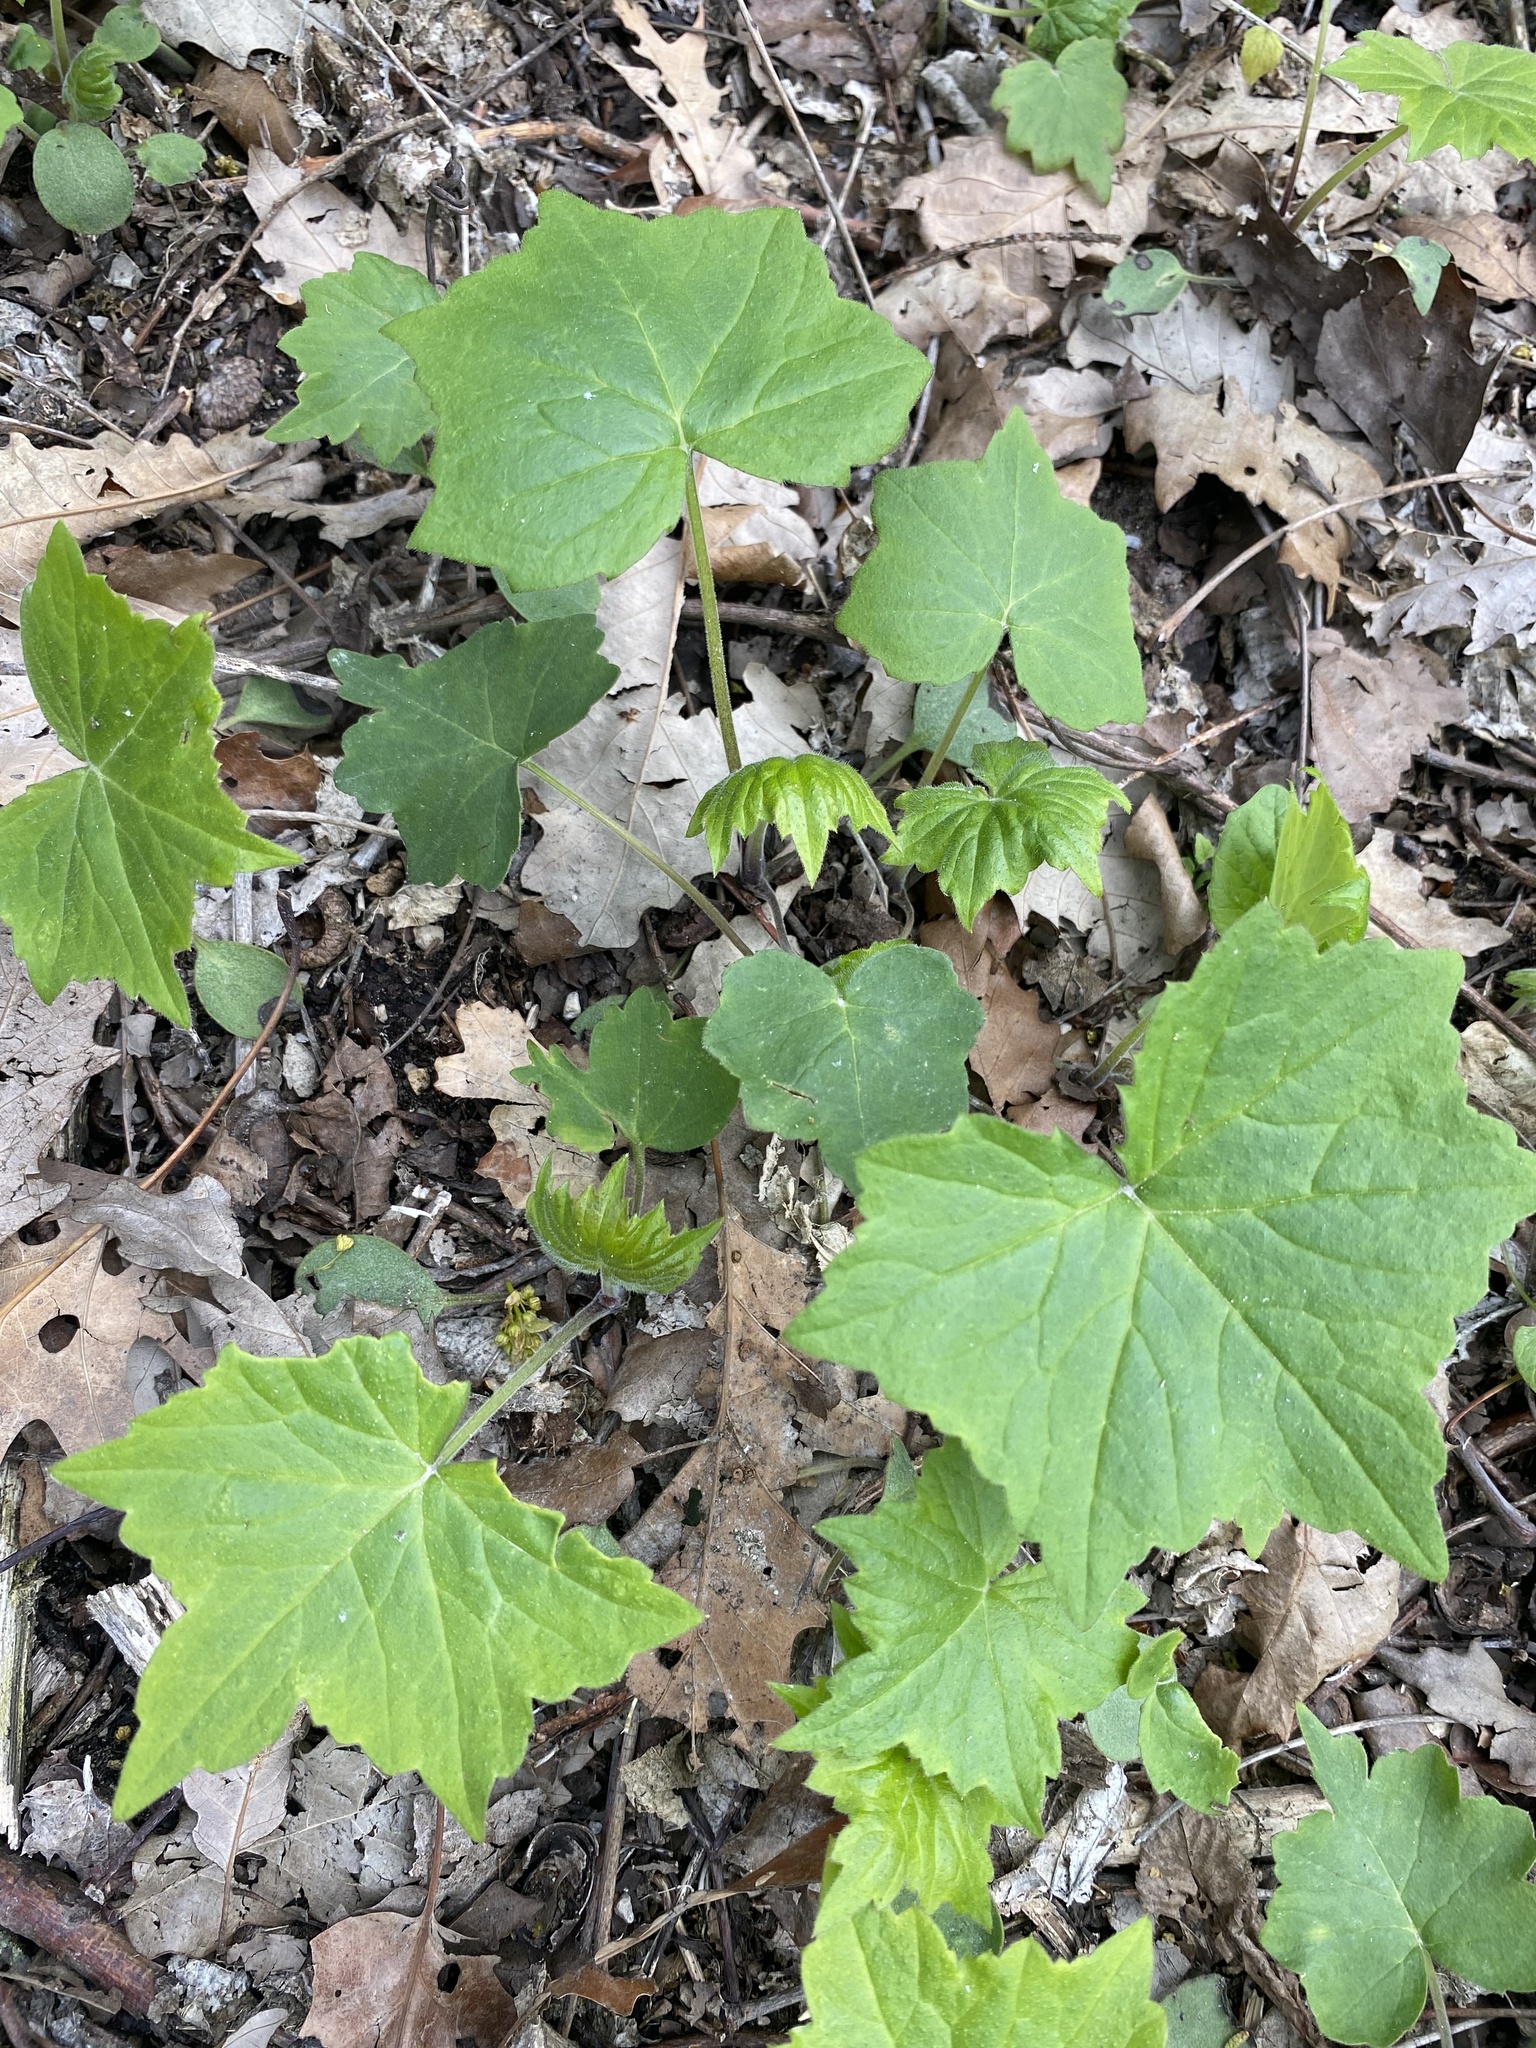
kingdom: Plantae
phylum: Tracheophyta
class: Magnoliopsida
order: Boraginales
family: Hydrophyllaceae
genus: Hydrophyllum
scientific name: Hydrophyllum appendiculatum
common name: Appendaged waterleaf
